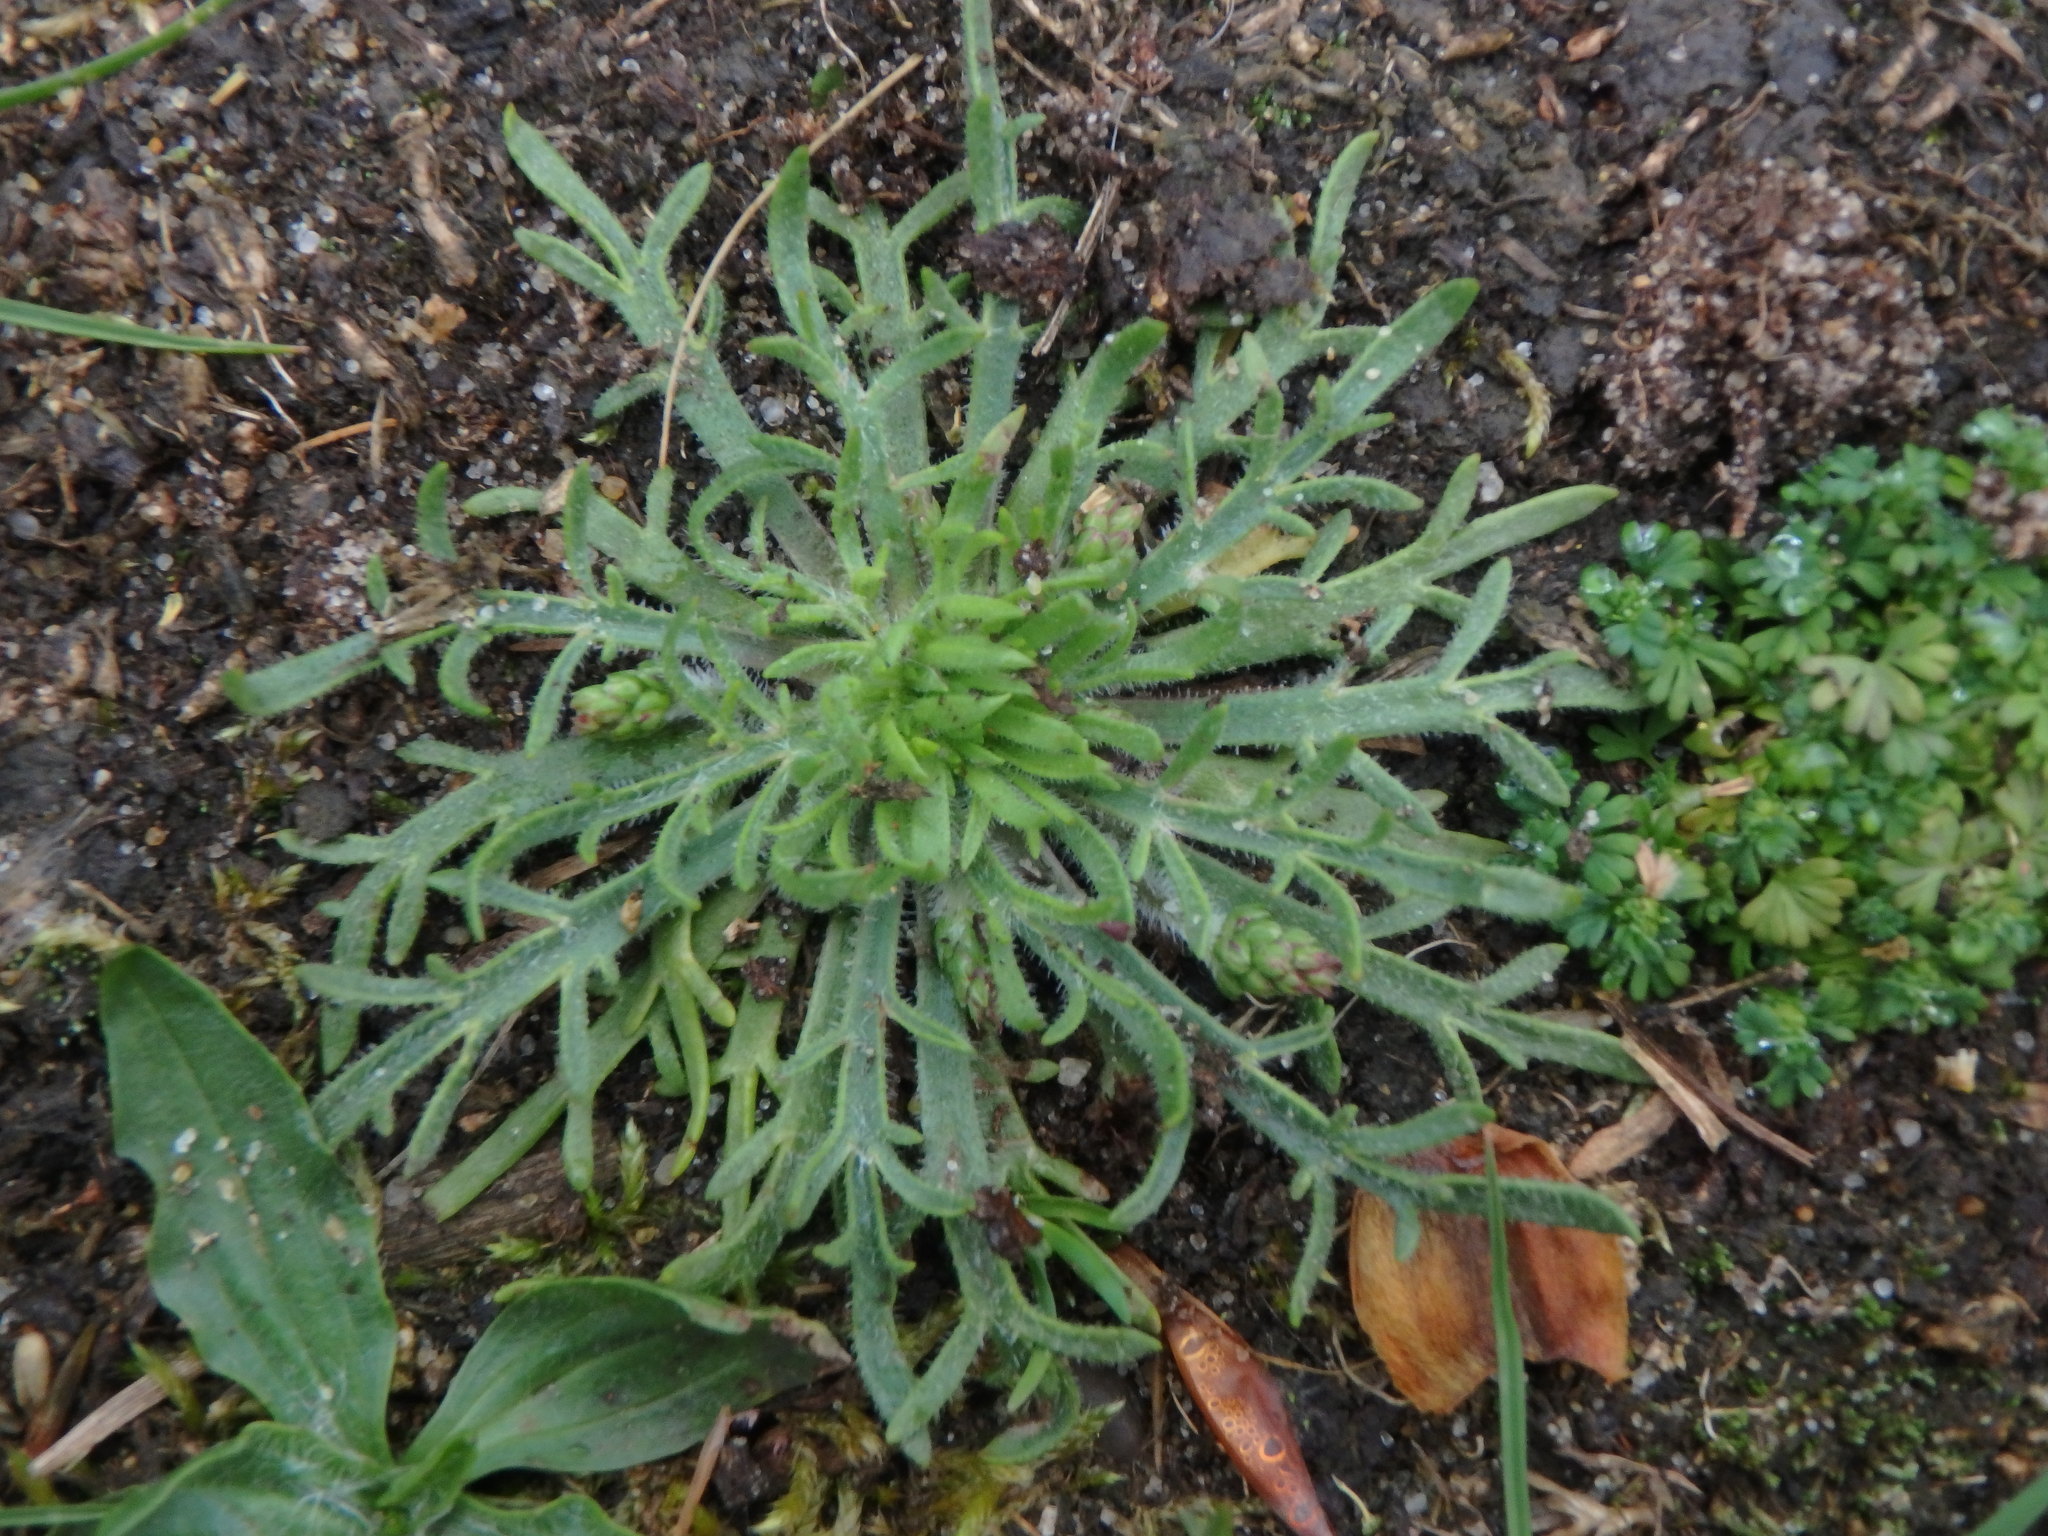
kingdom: Plantae
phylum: Tracheophyta
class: Magnoliopsida
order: Lamiales
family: Plantaginaceae
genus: Plantago
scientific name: Plantago coronopus
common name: Buck's-horn plantain
